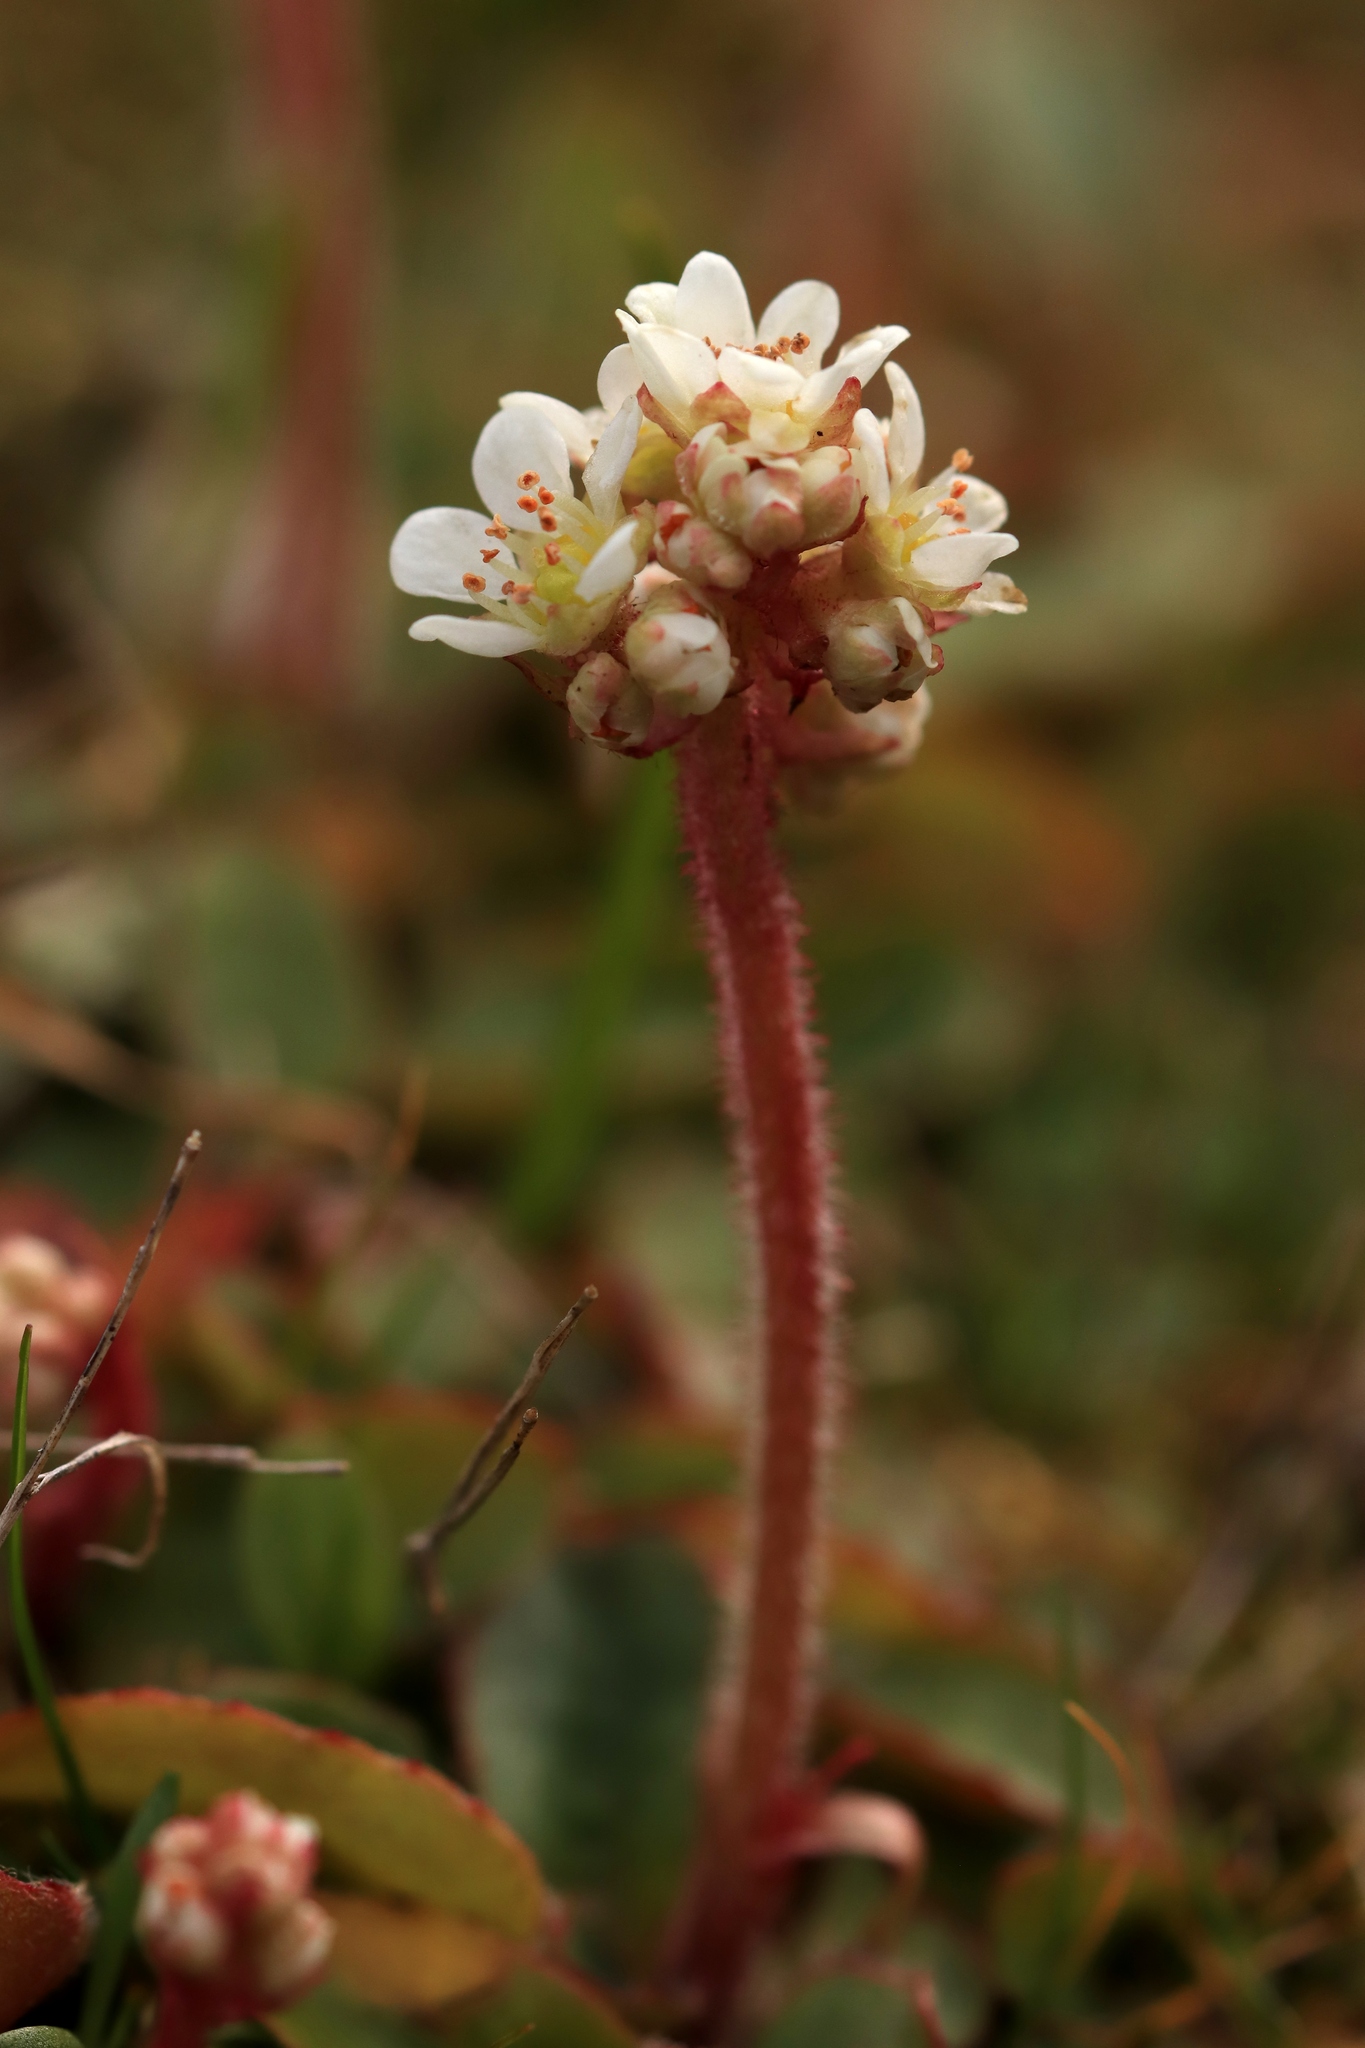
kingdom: Plantae
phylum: Tracheophyta
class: Magnoliopsida
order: Saxifragales
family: Saxifragaceae
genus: Micranthes
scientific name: Micranthes integrifolia
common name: Wholeleaf saxifrage
